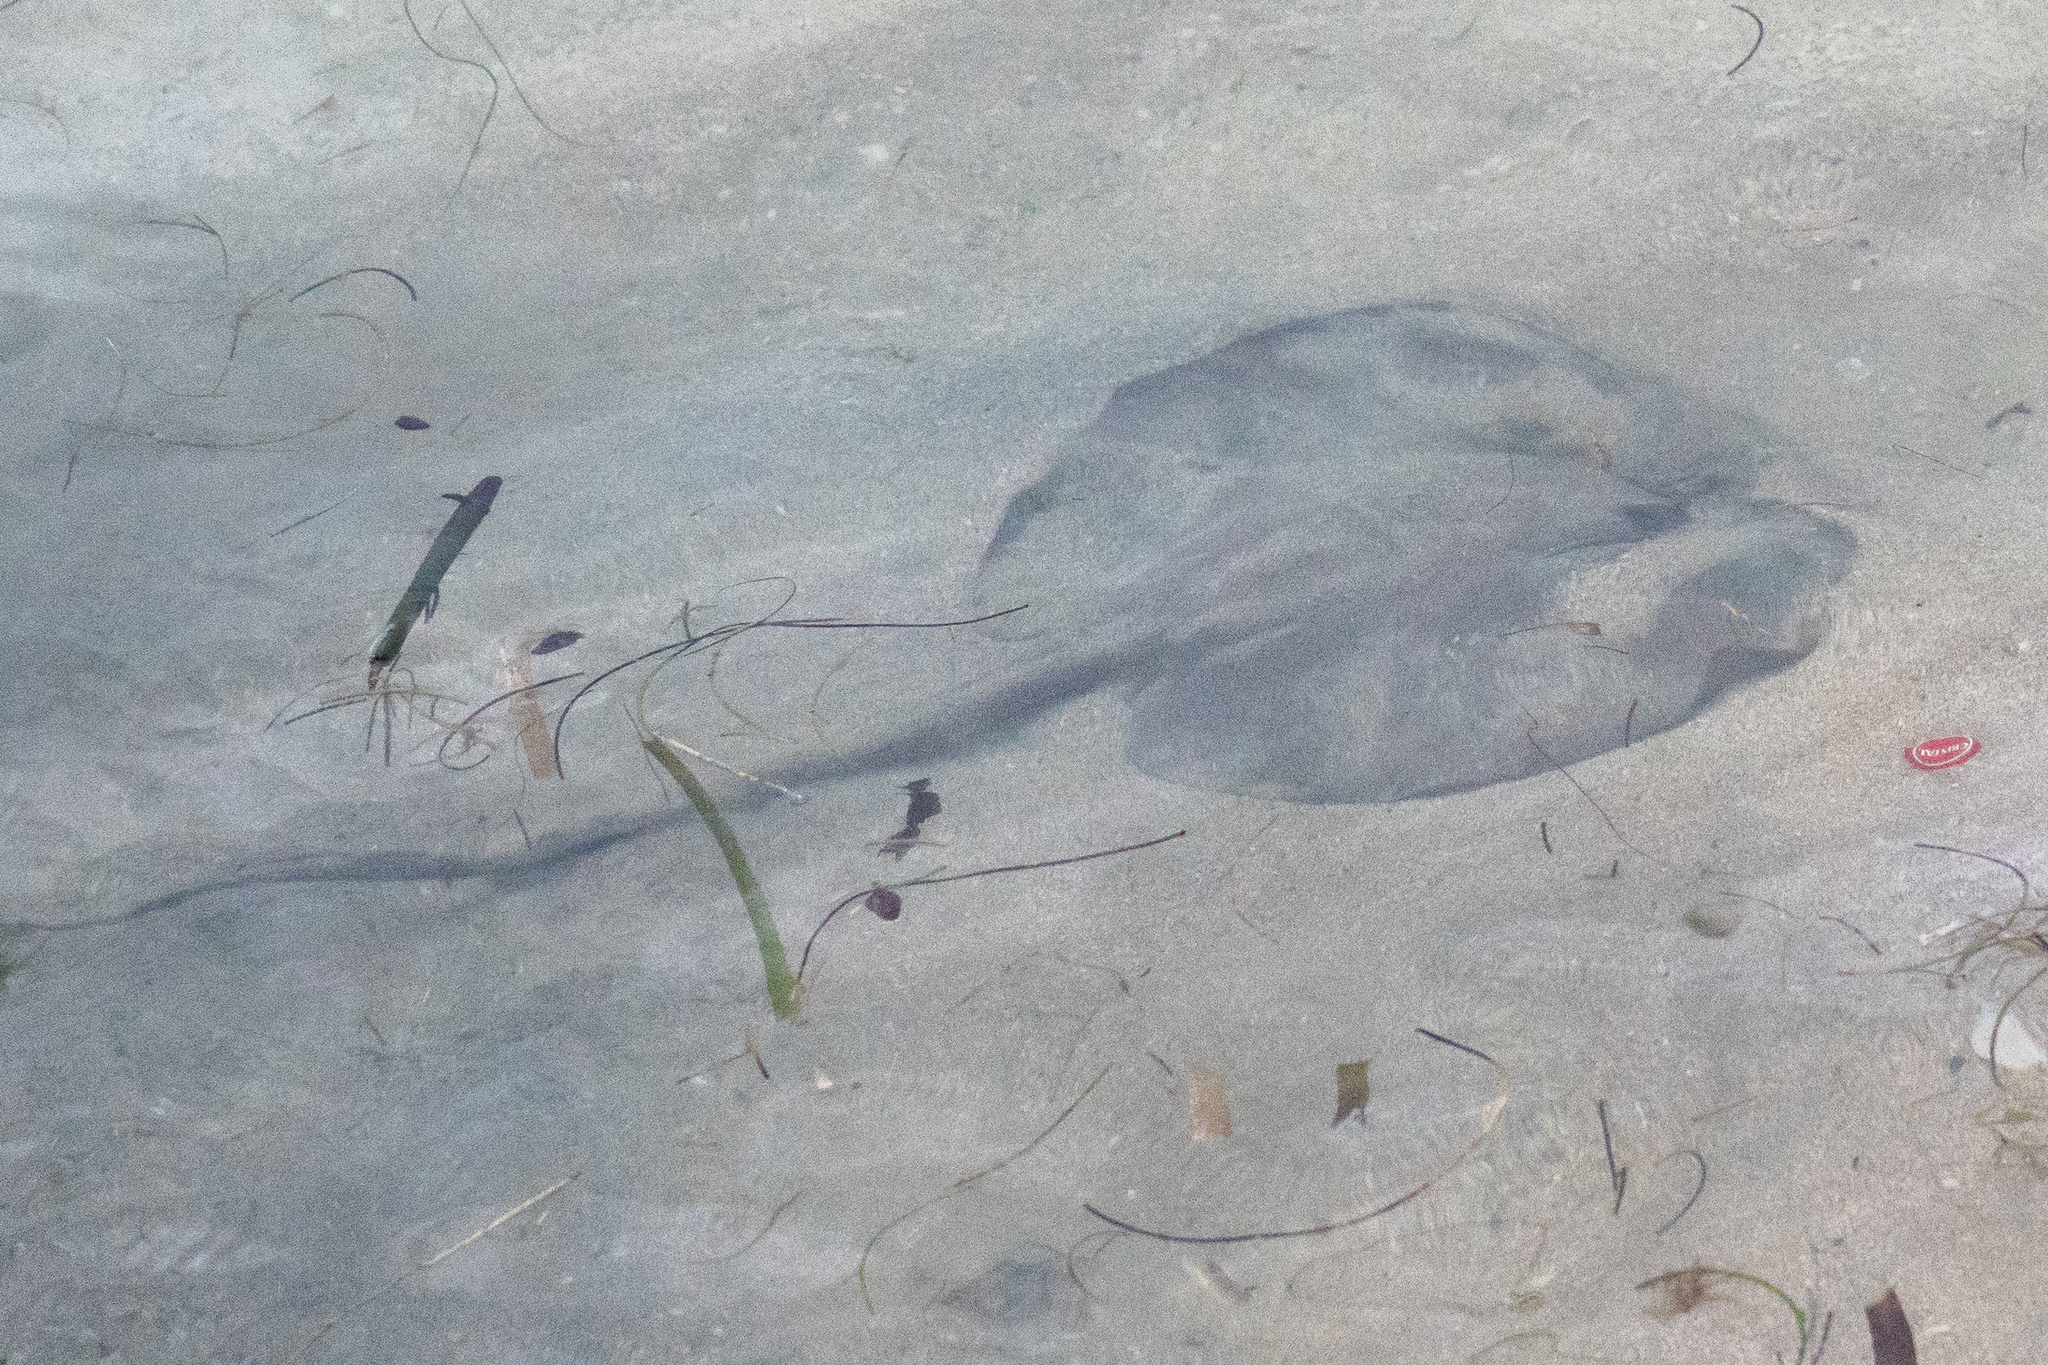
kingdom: Animalia
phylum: Chordata
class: Elasmobranchii
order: Myliobatiformes
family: Potamotrygonidae
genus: Styracura
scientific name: Styracura schmardae
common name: Atlantic chupare
